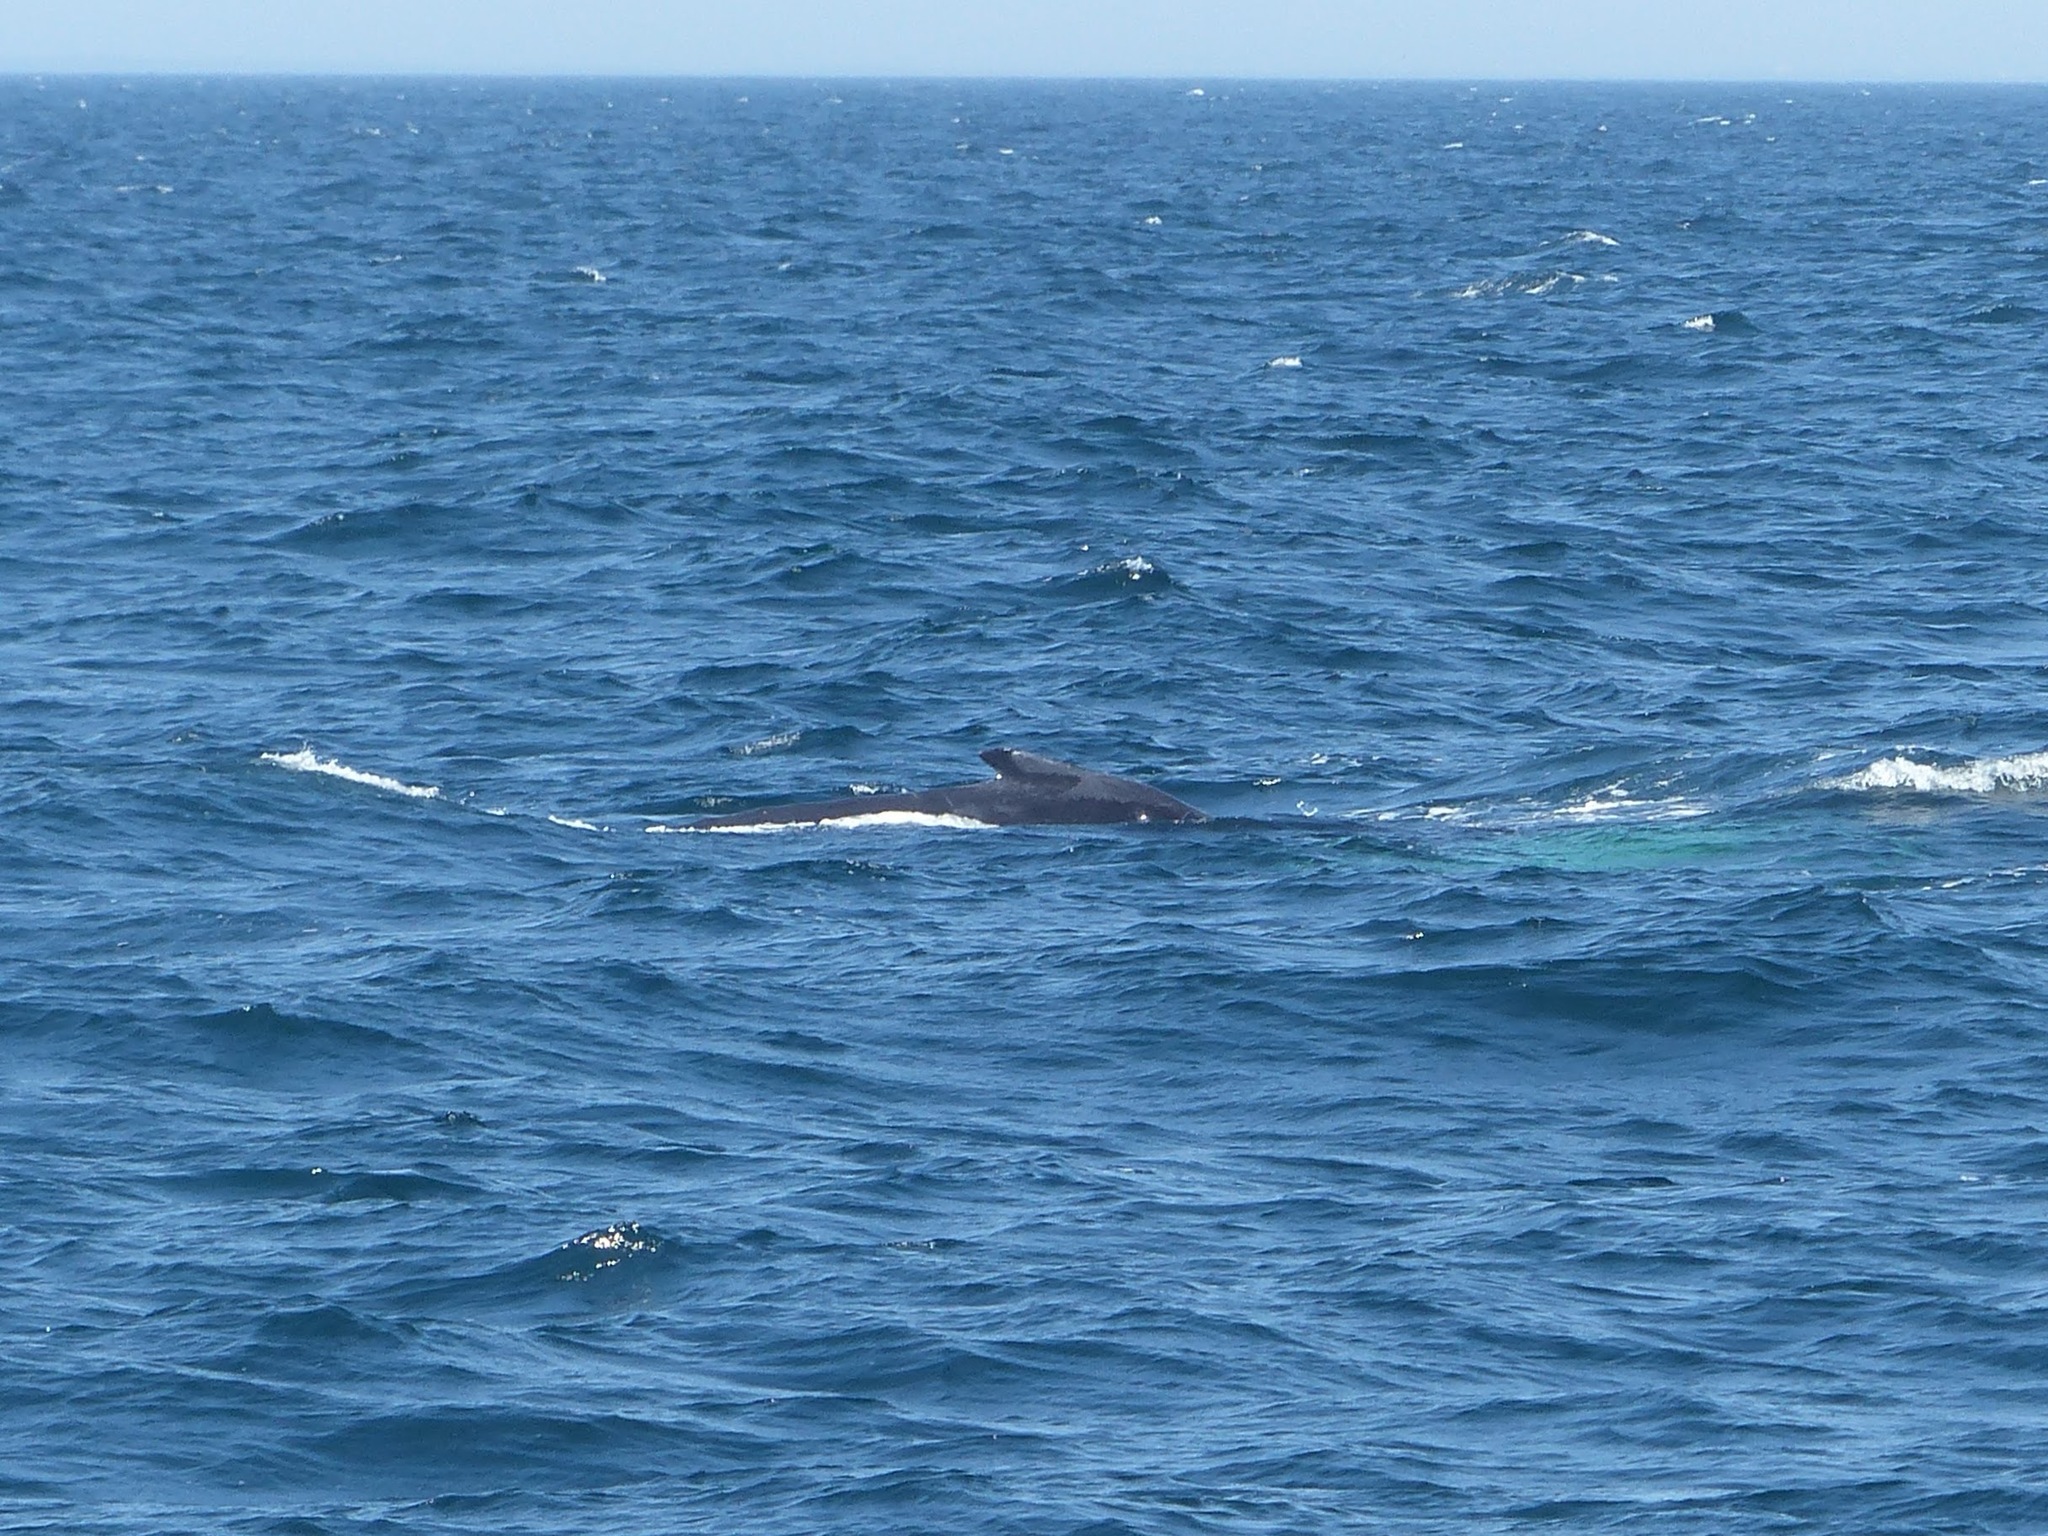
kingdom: Animalia
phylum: Chordata
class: Mammalia
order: Cetacea
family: Balaenopteridae
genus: Megaptera
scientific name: Megaptera novaeangliae
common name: Humpback whale
